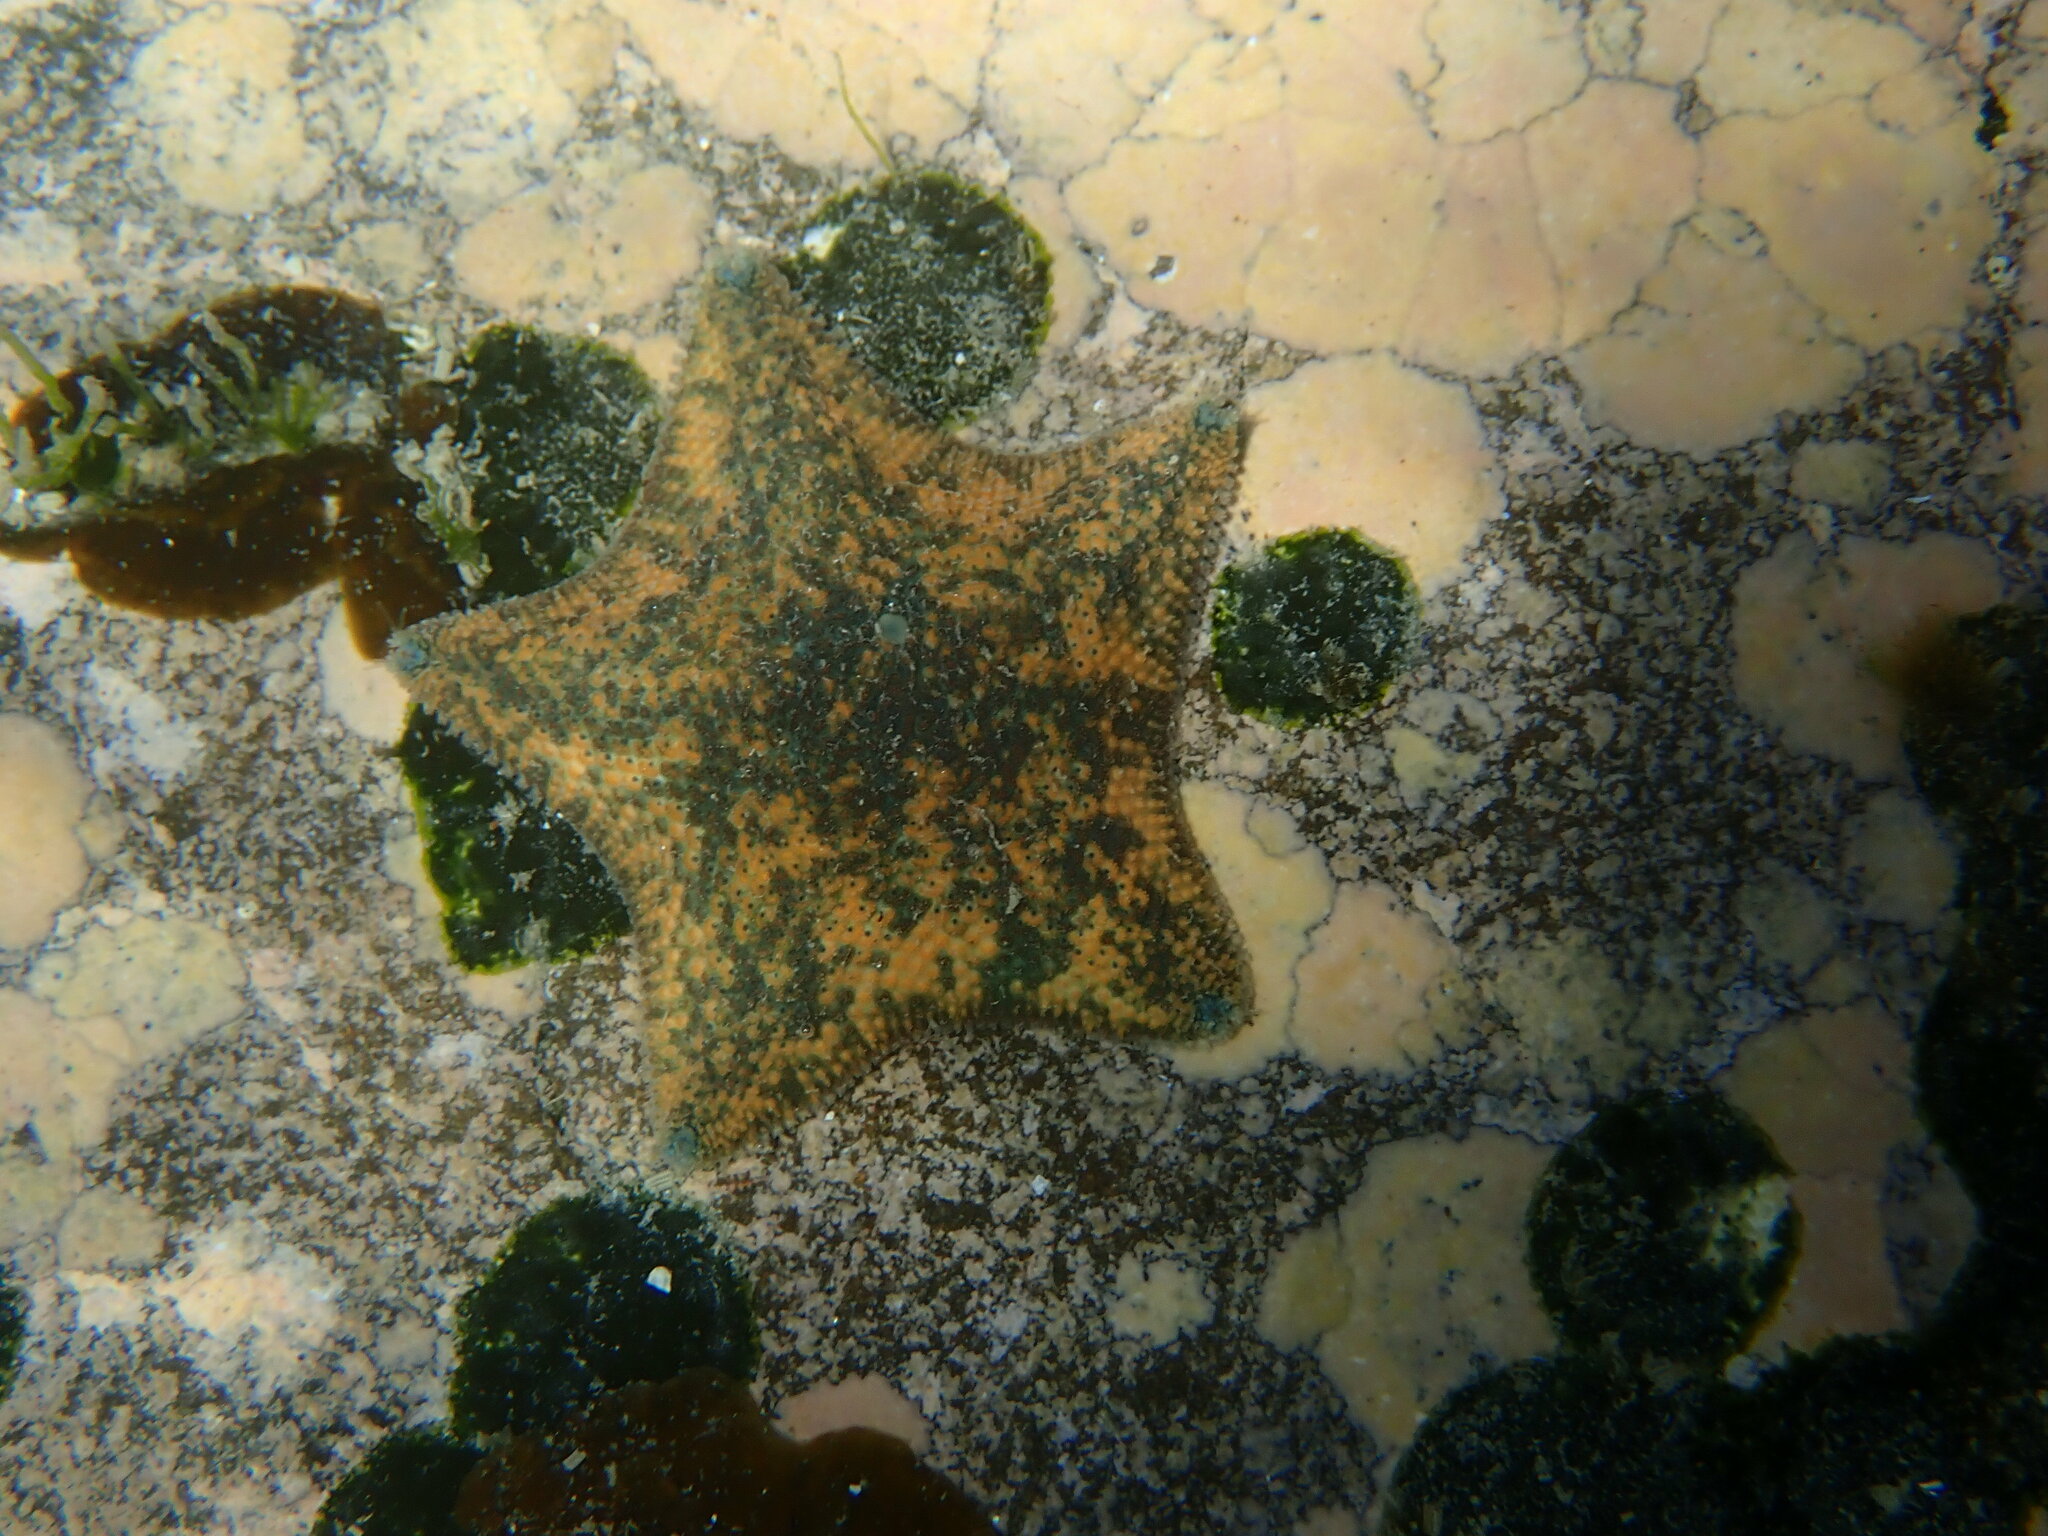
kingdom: Animalia
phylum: Echinodermata
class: Asteroidea
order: Valvatida
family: Asterinidae
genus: Patiriella
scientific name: Patiriella regularis
